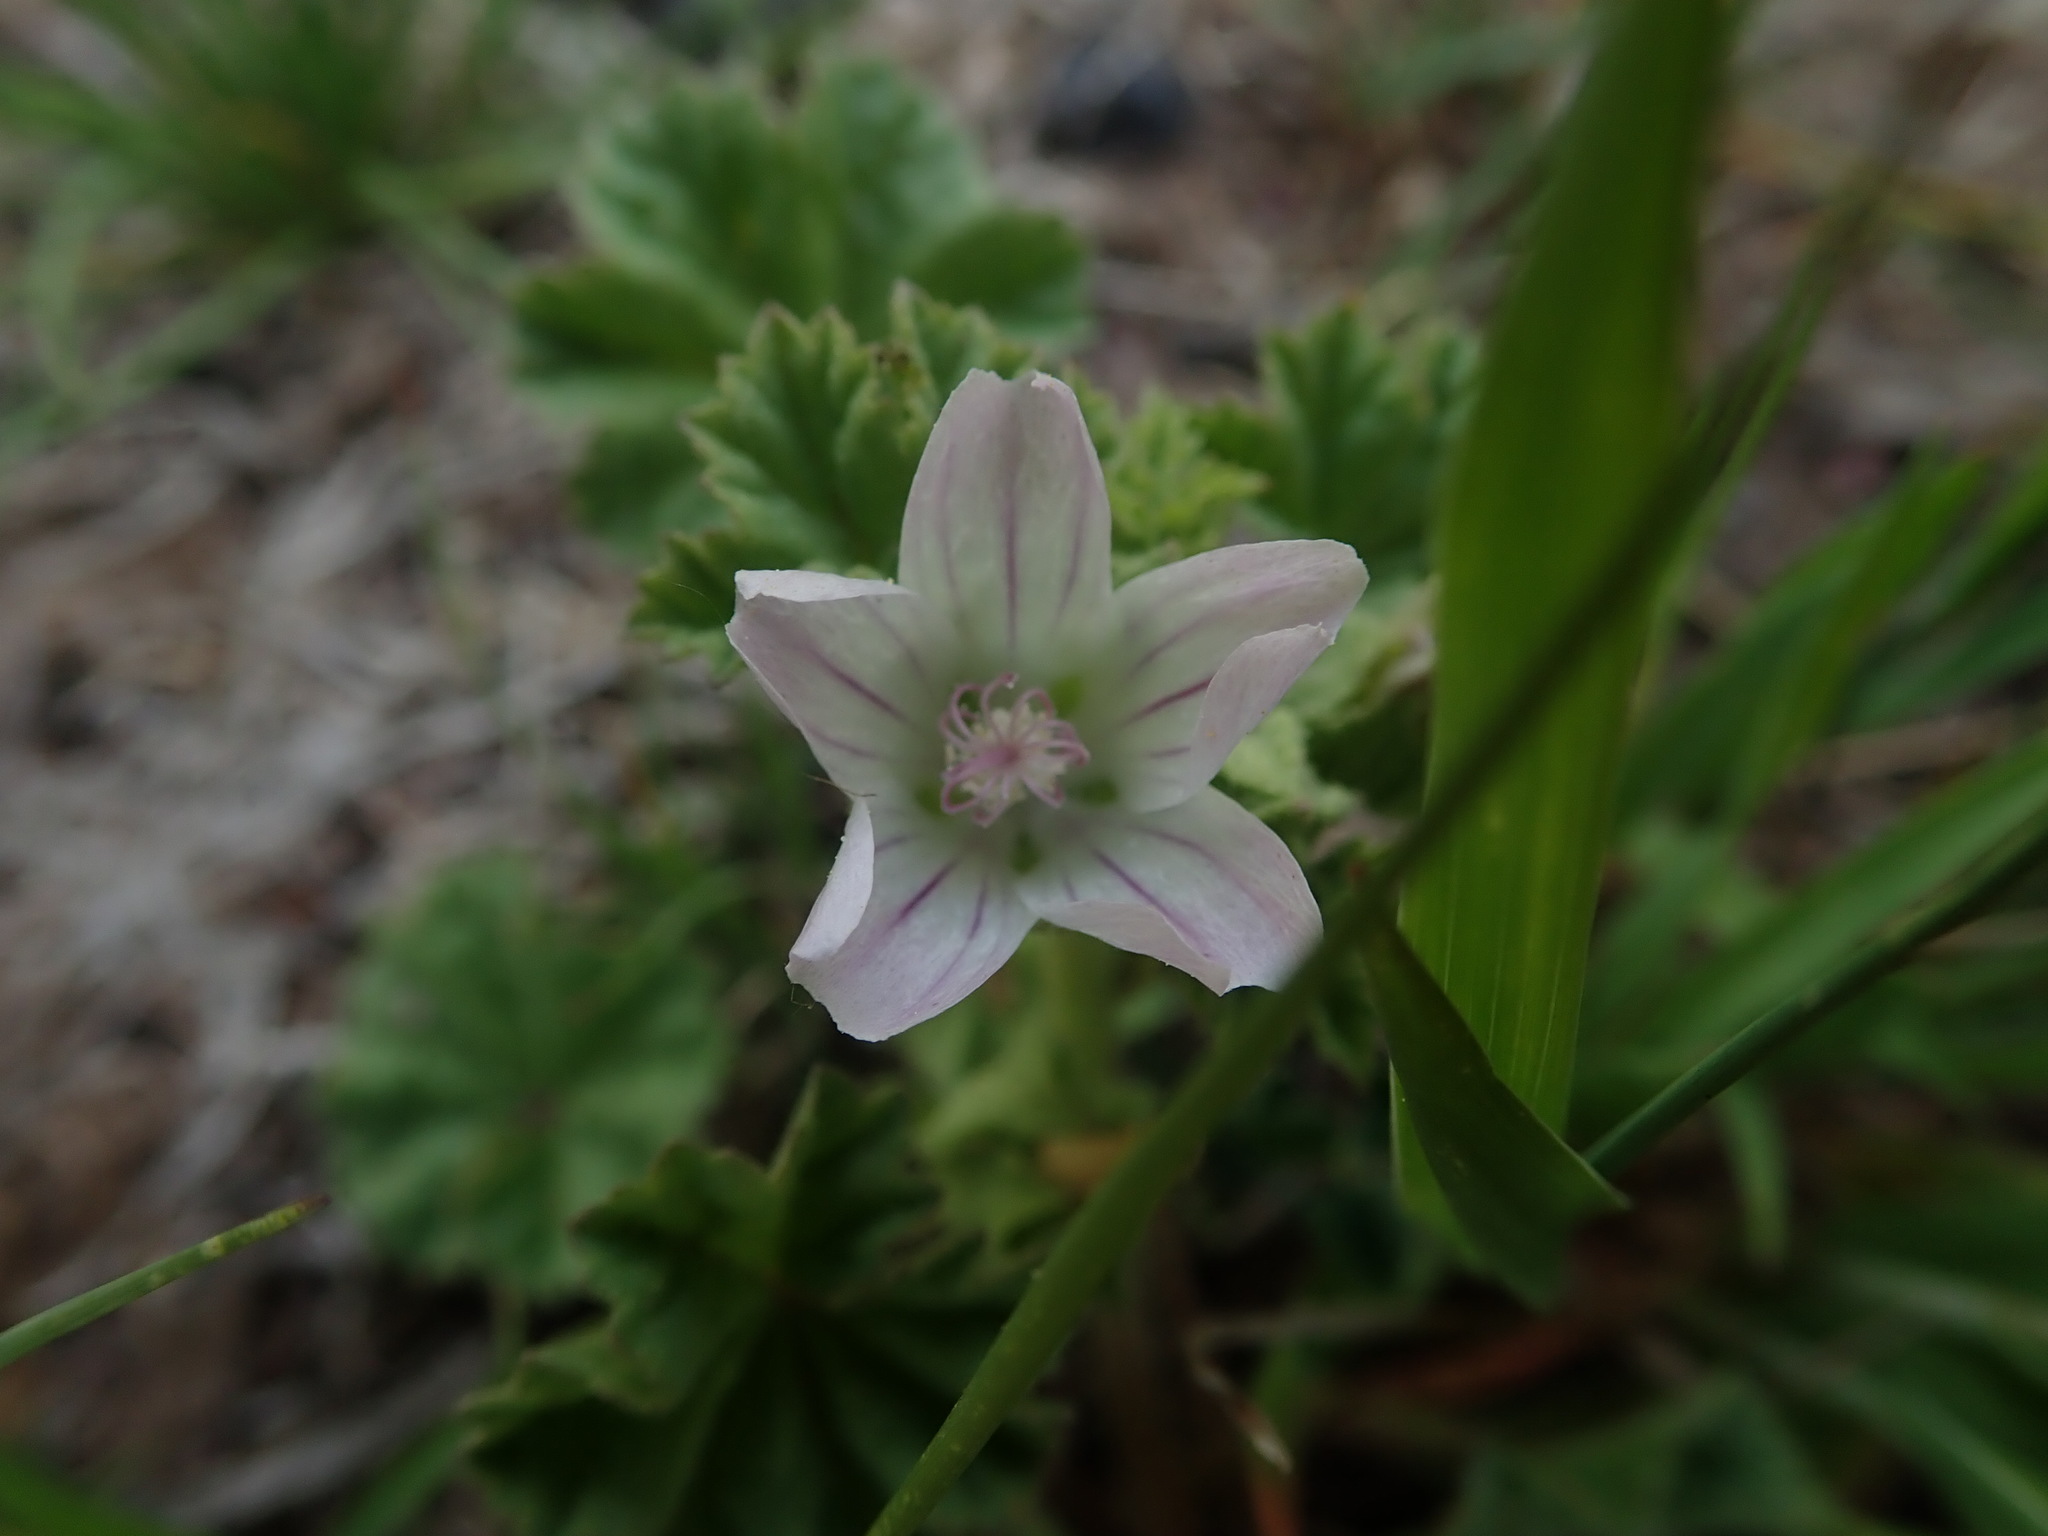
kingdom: Plantae
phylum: Tracheophyta
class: Magnoliopsida
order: Malvales
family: Malvaceae
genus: Malva
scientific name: Malva neglecta
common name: Common mallow
